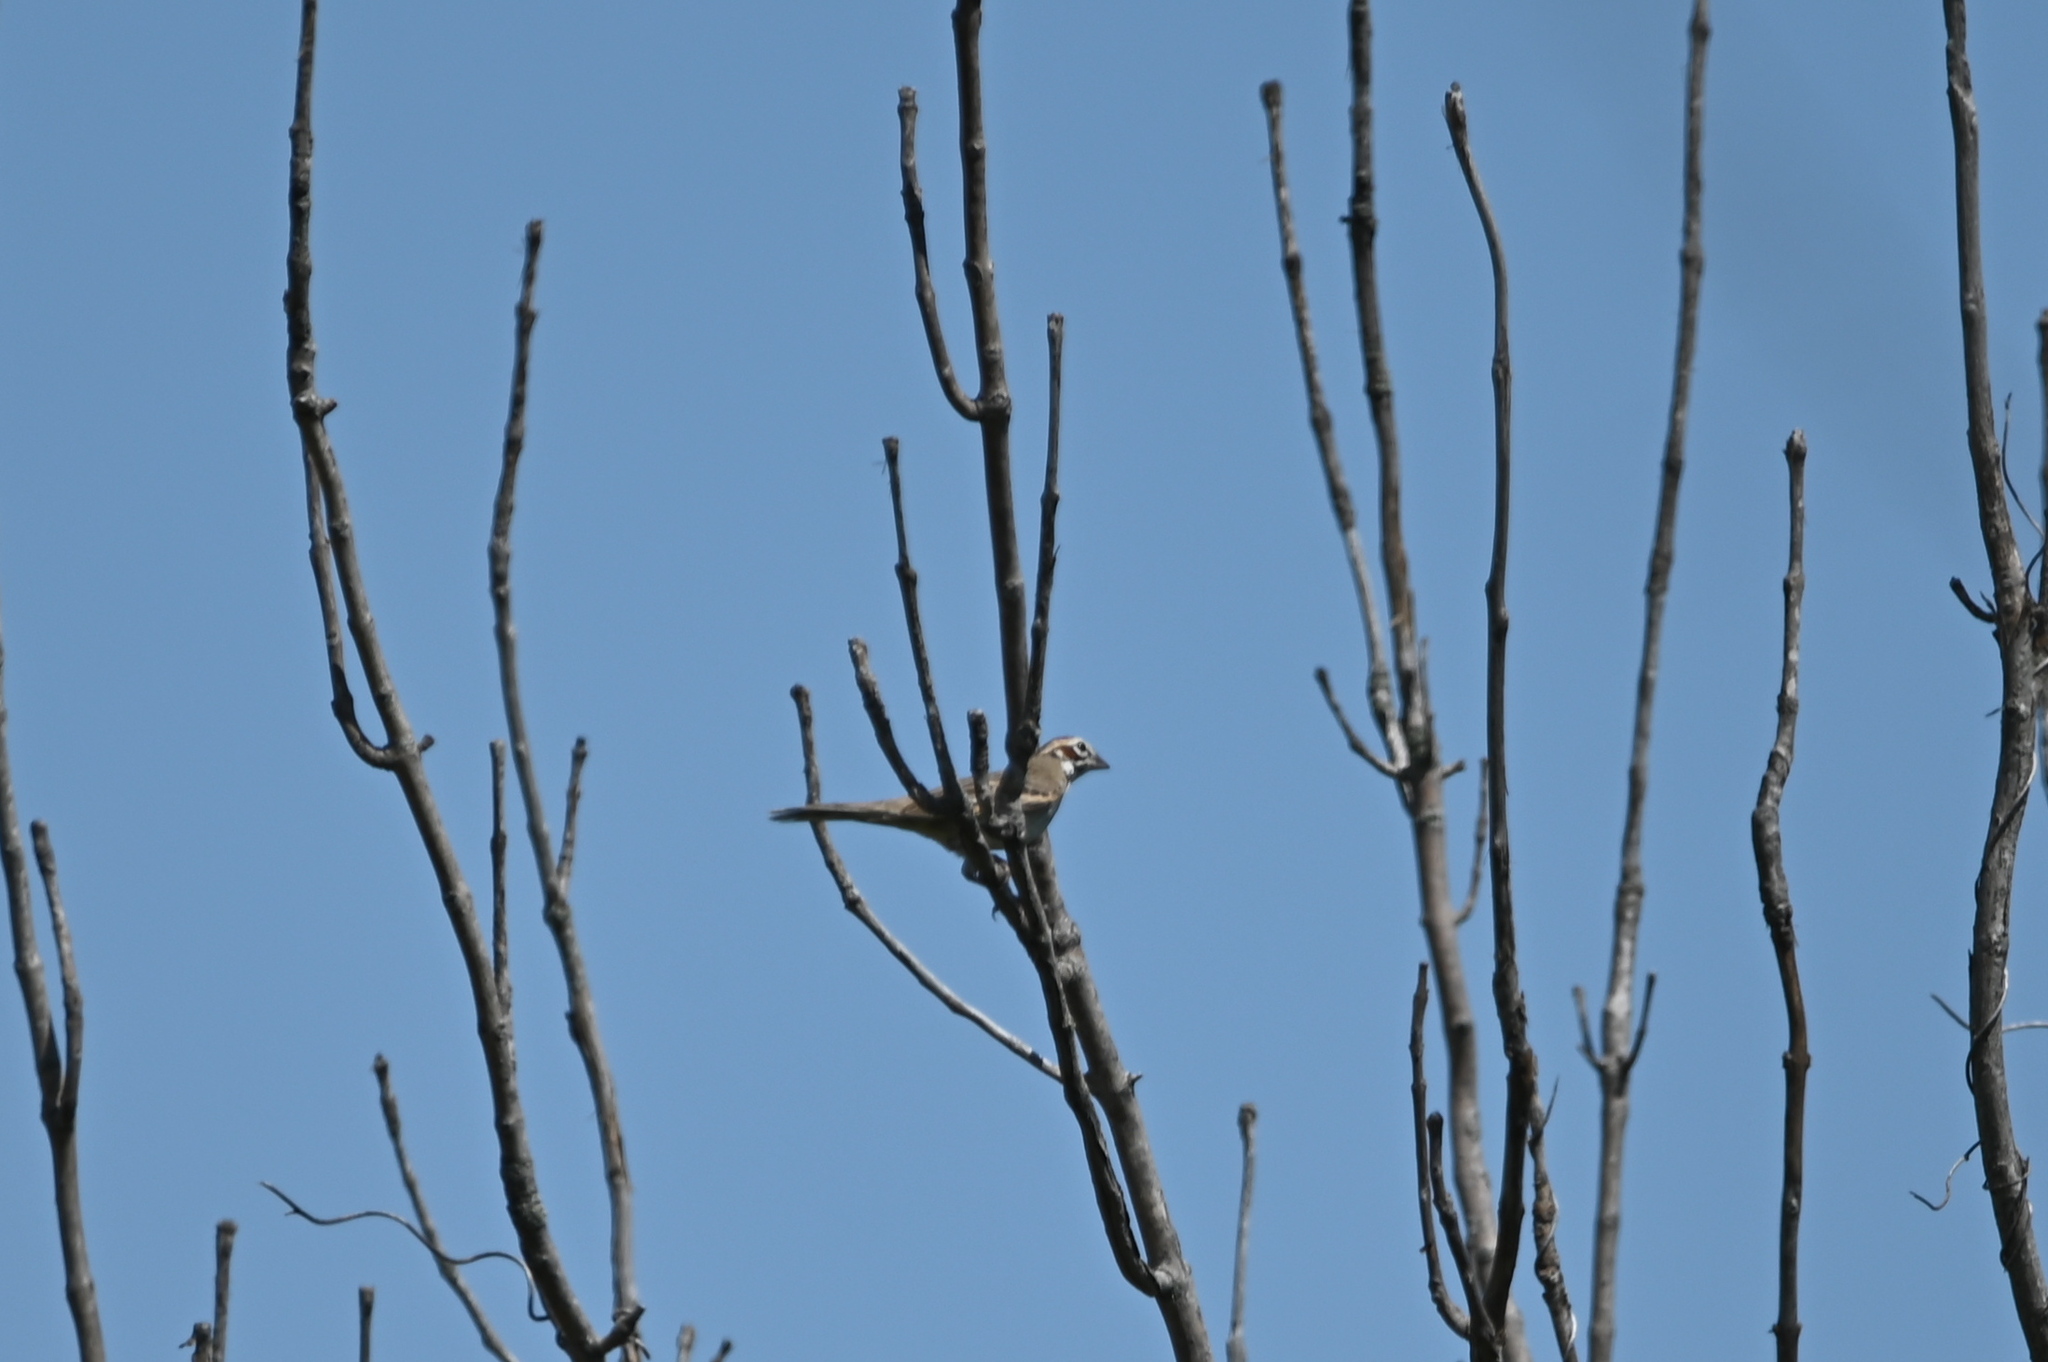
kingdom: Animalia
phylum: Chordata
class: Aves
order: Passeriformes
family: Passerellidae
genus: Chondestes
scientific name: Chondestes grammacus
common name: Lark sparrow
